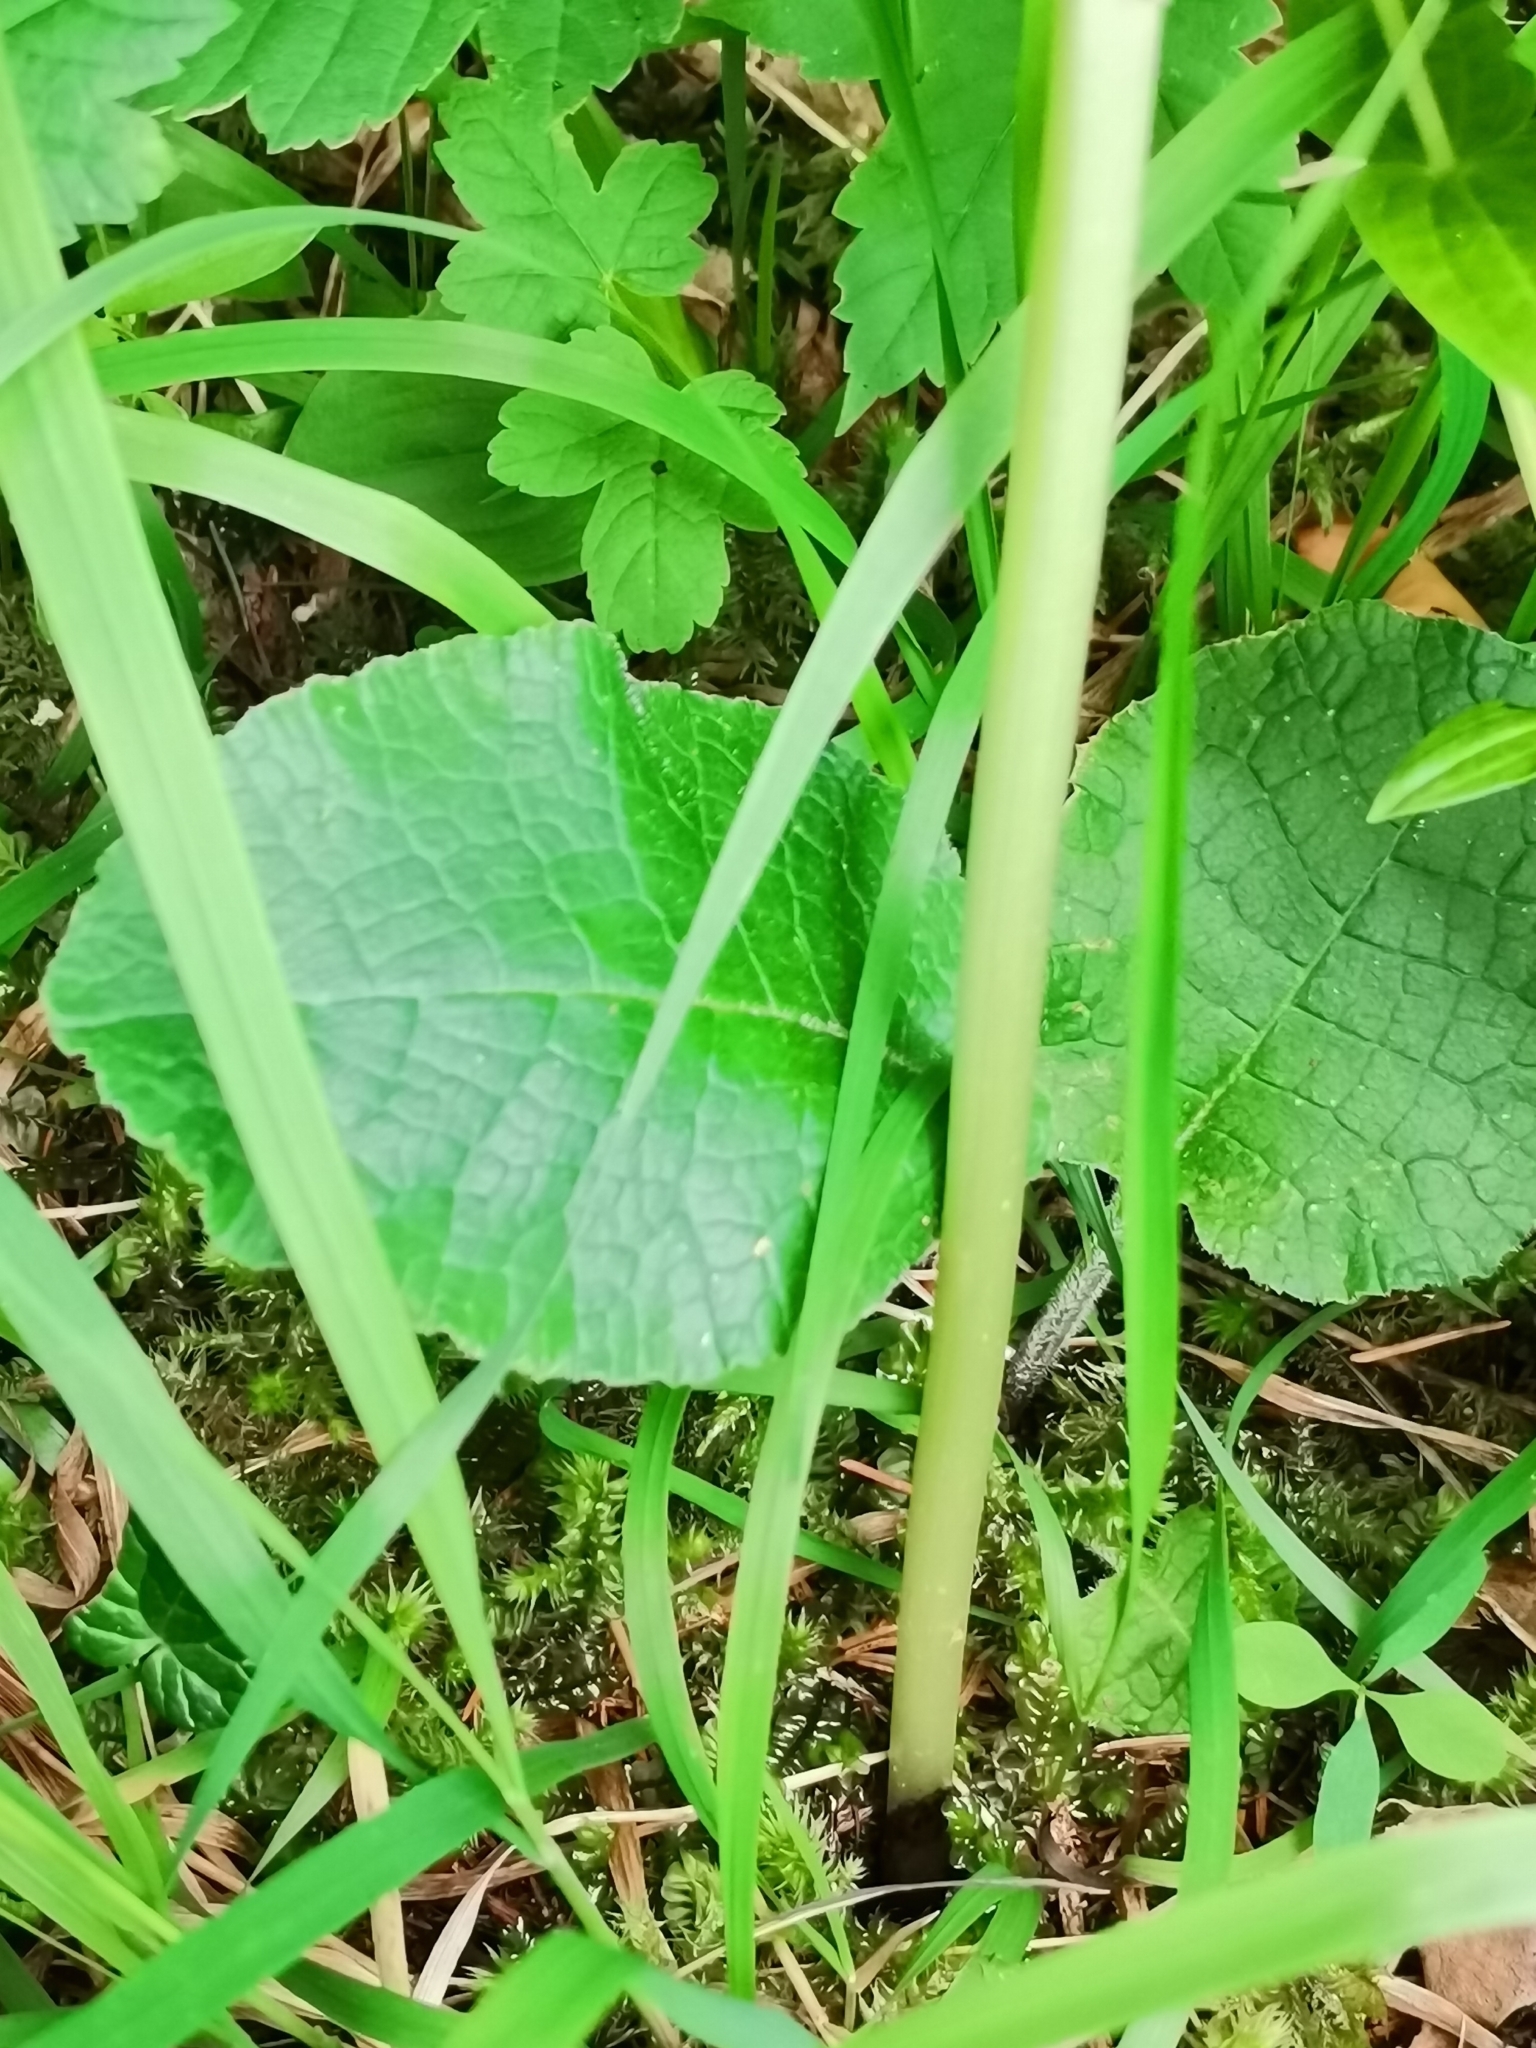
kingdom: Plantae
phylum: Tracheophyta
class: Liliopsida
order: Asparagales
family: Orchidaceae
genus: Neottia
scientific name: Neottia ovata
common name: Common twayblade
